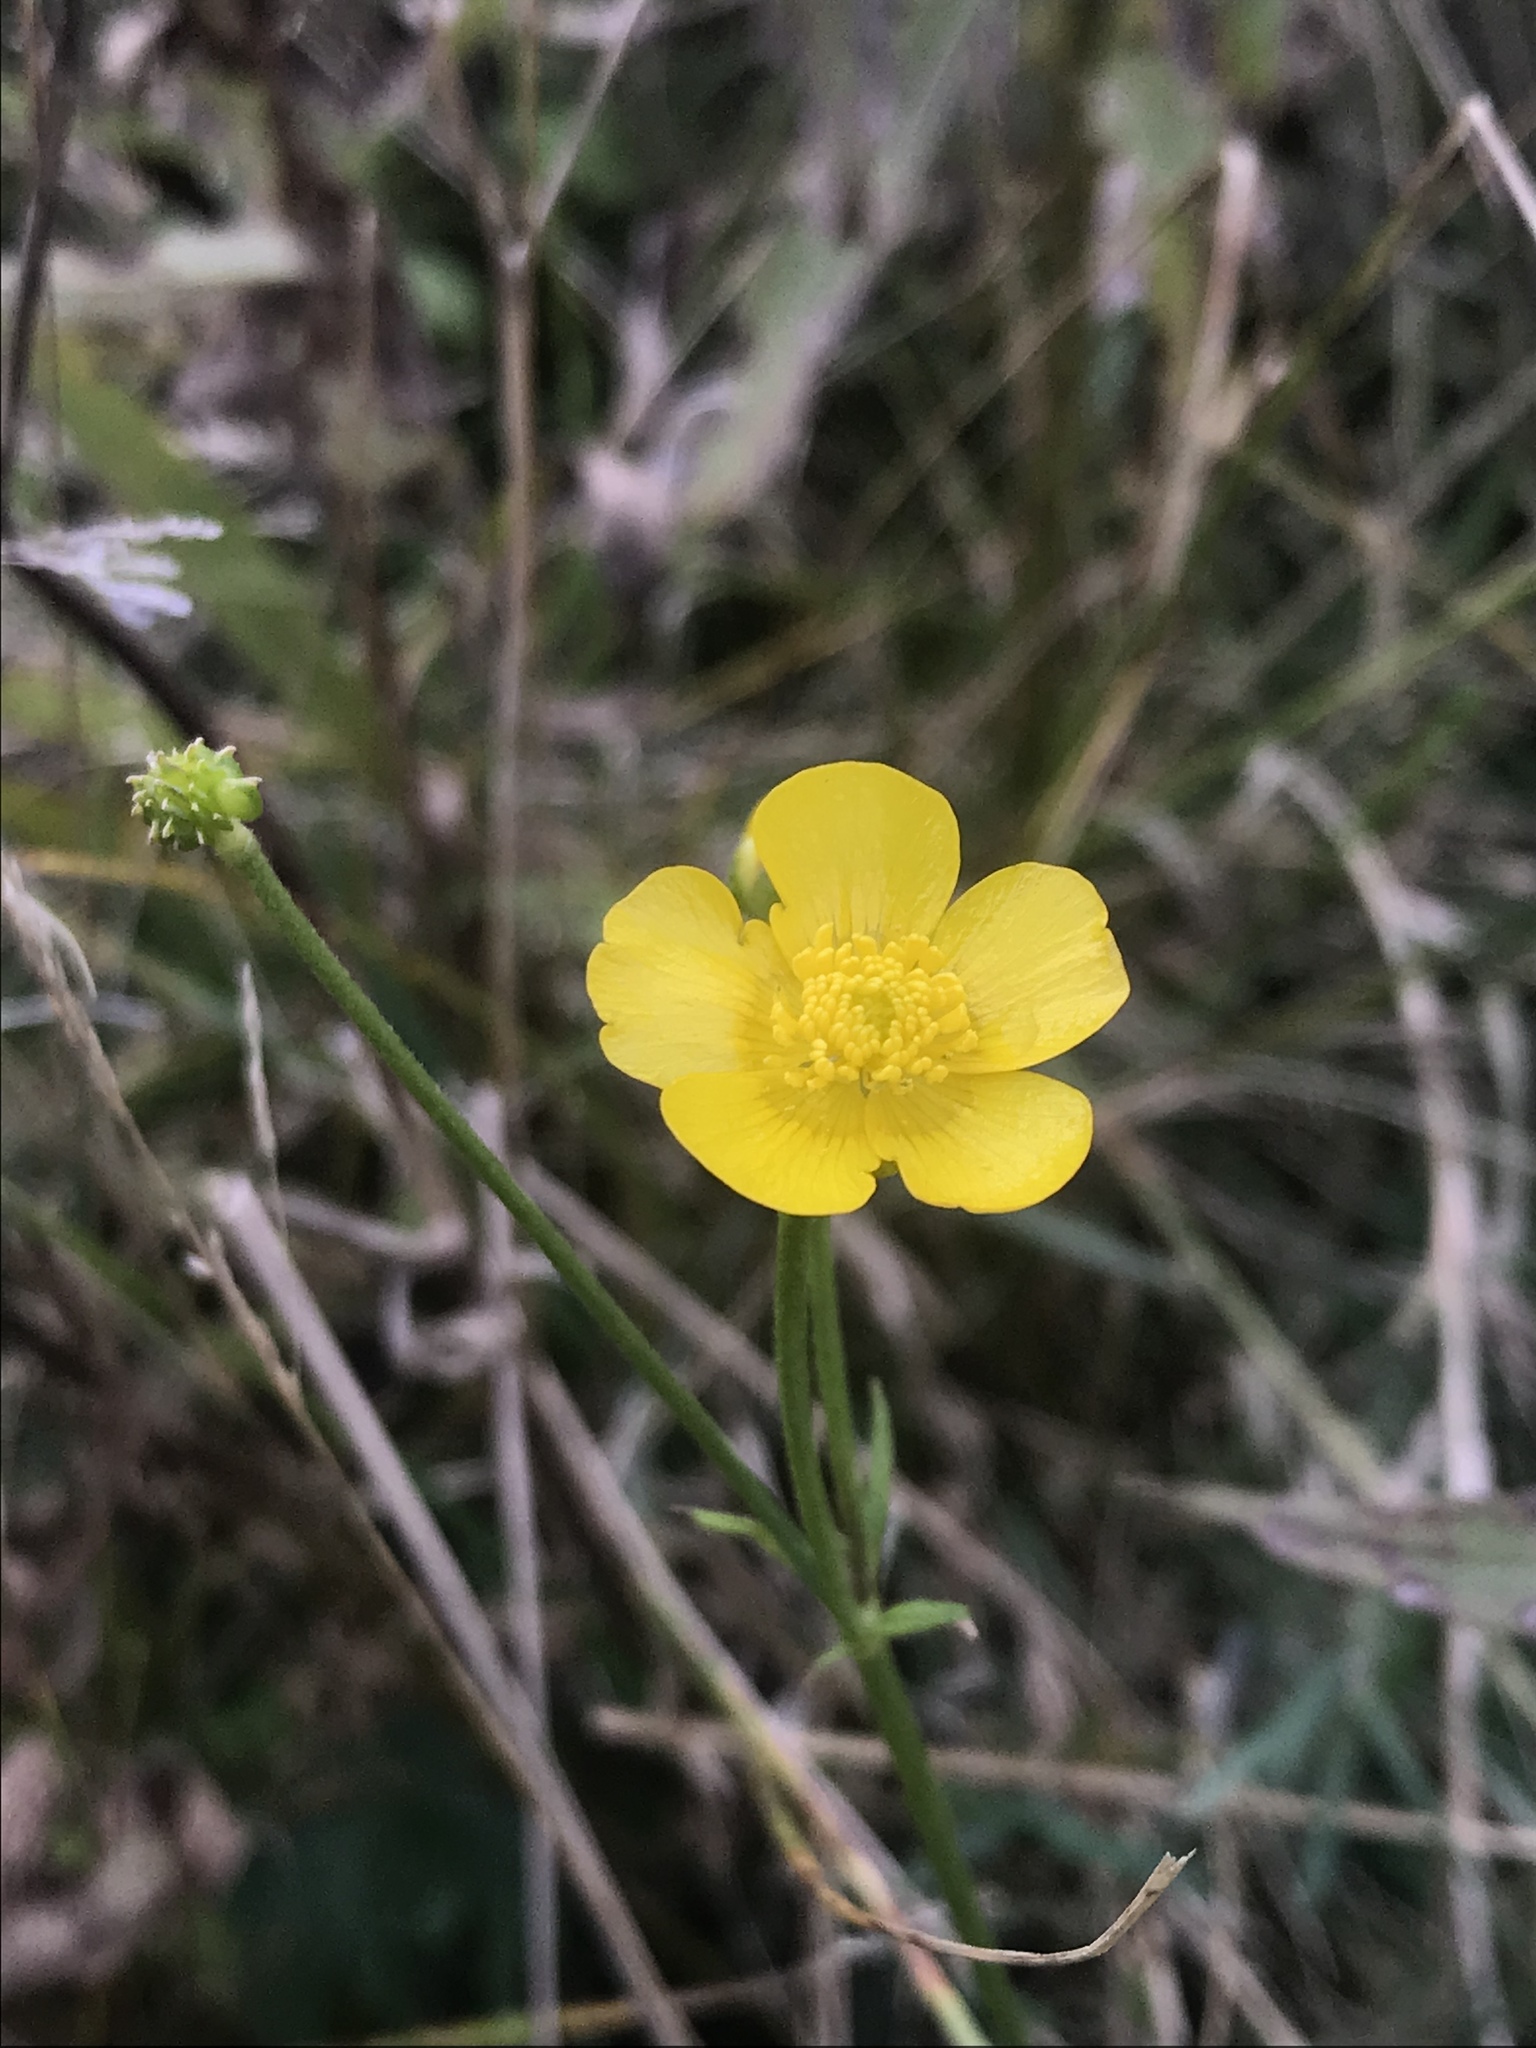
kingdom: Plantae
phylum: Tracheophyta
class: Magnoliopsida
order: Ranunculales
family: Ranunculaceae
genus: Ranunculus
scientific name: Ranunculus acris
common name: Meadow buttercup
